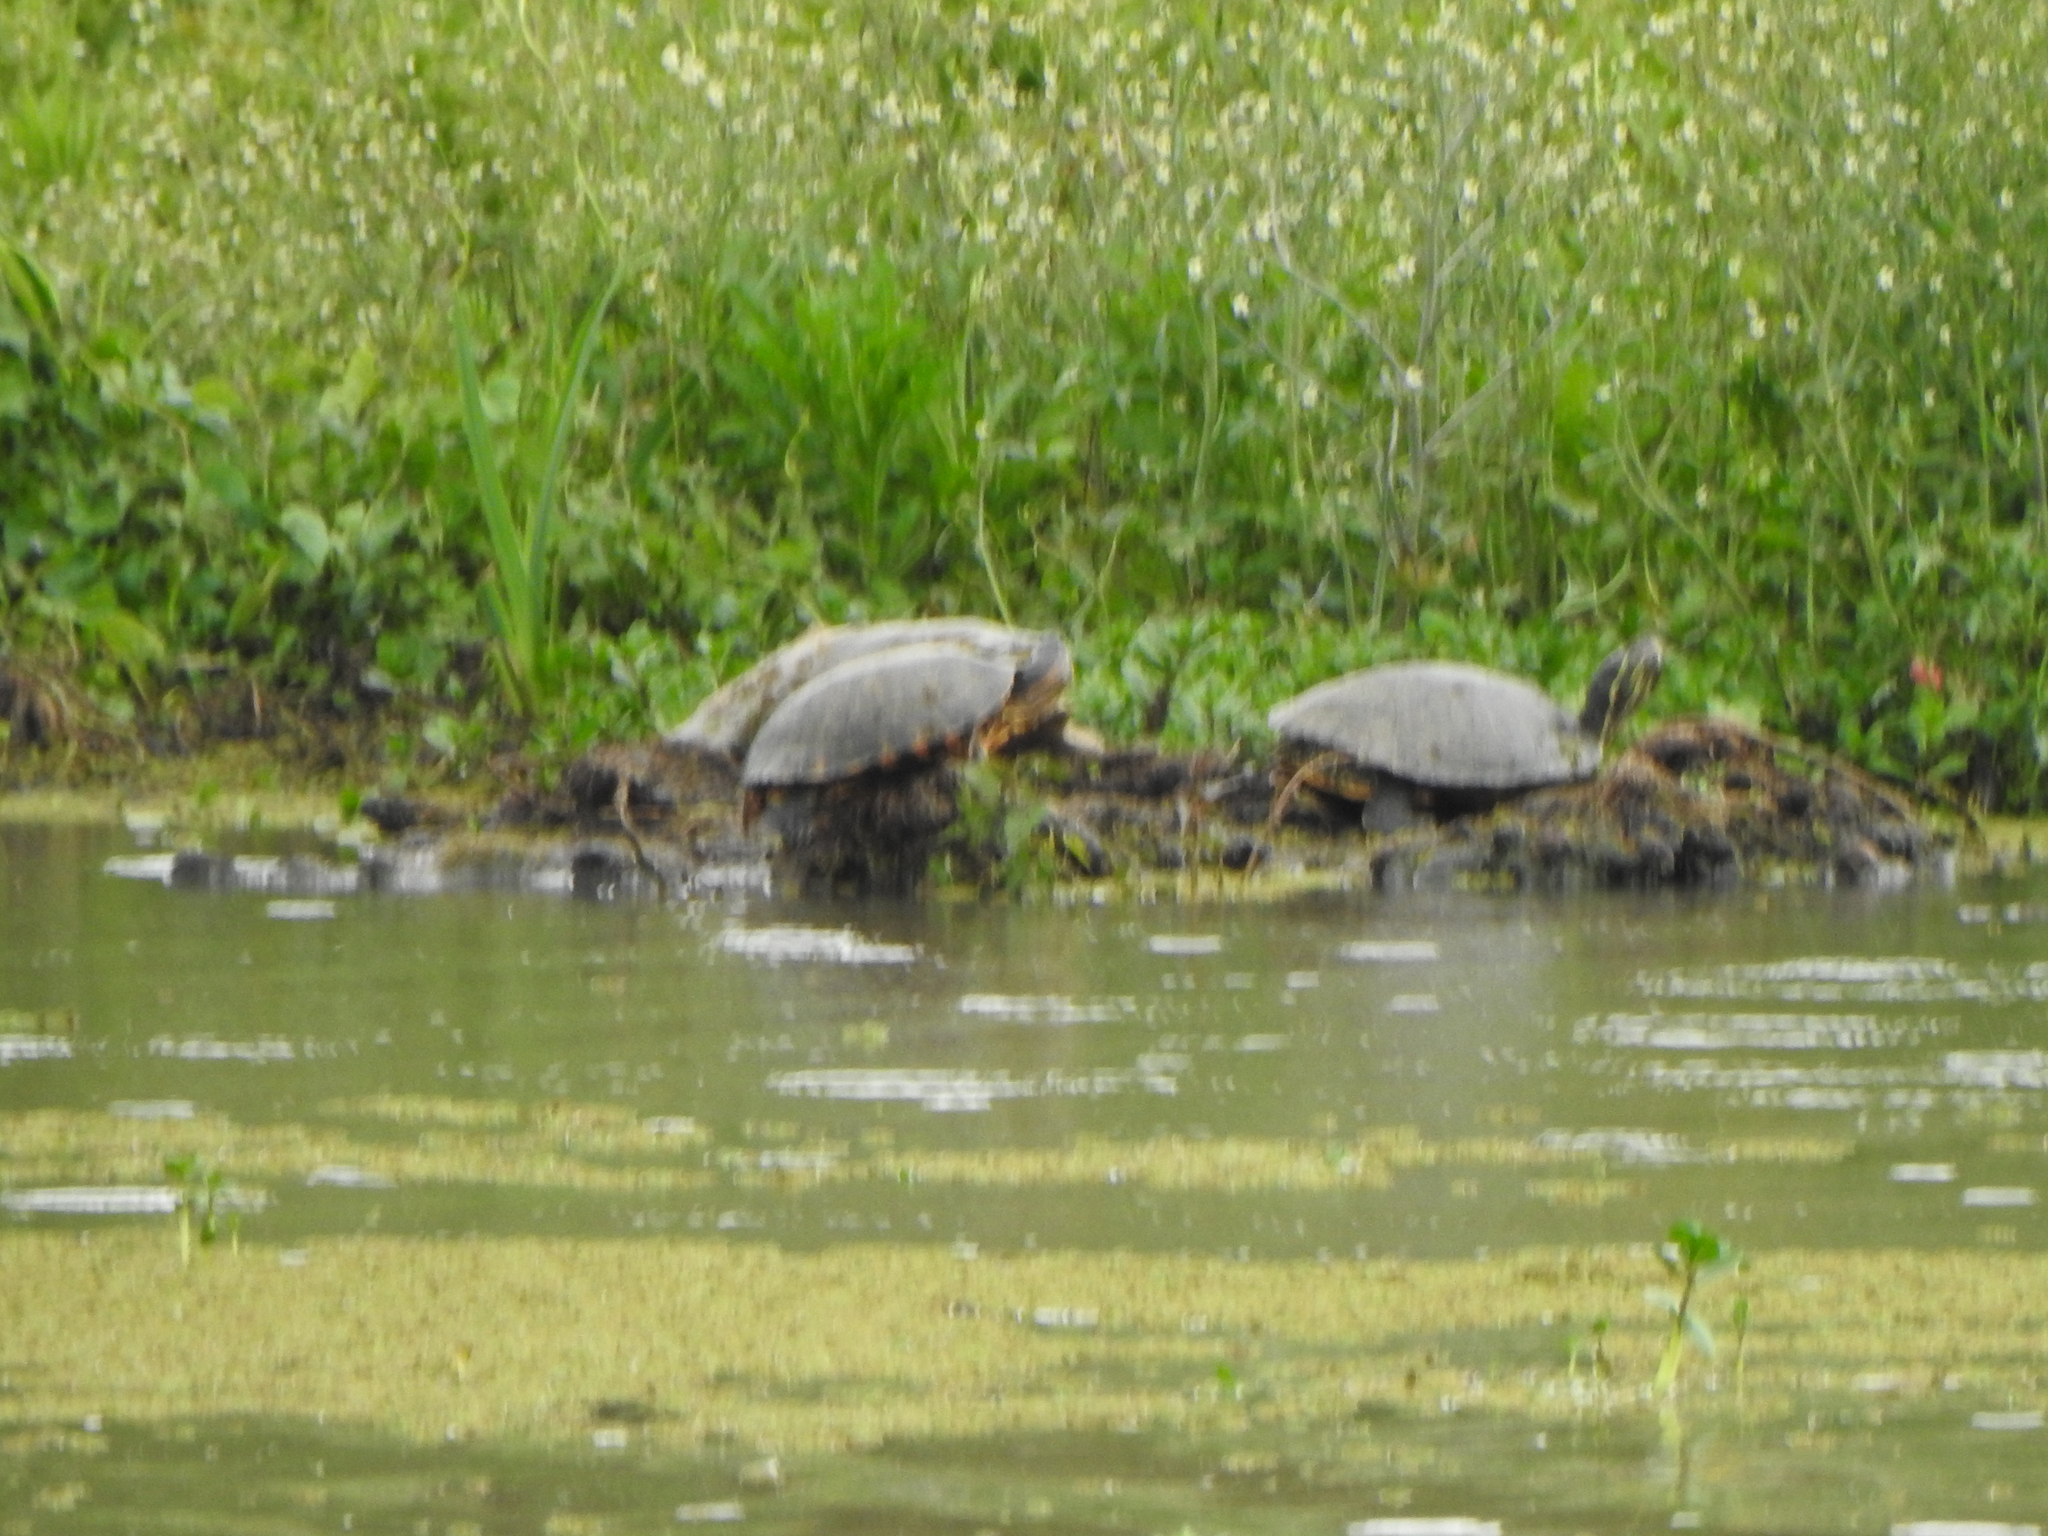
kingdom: Animalia
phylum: Chordata
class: Testudines
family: Chelidae
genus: Phrynops
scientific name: Phrynops hilarii
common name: Side-necked turtle of saint hillaire
